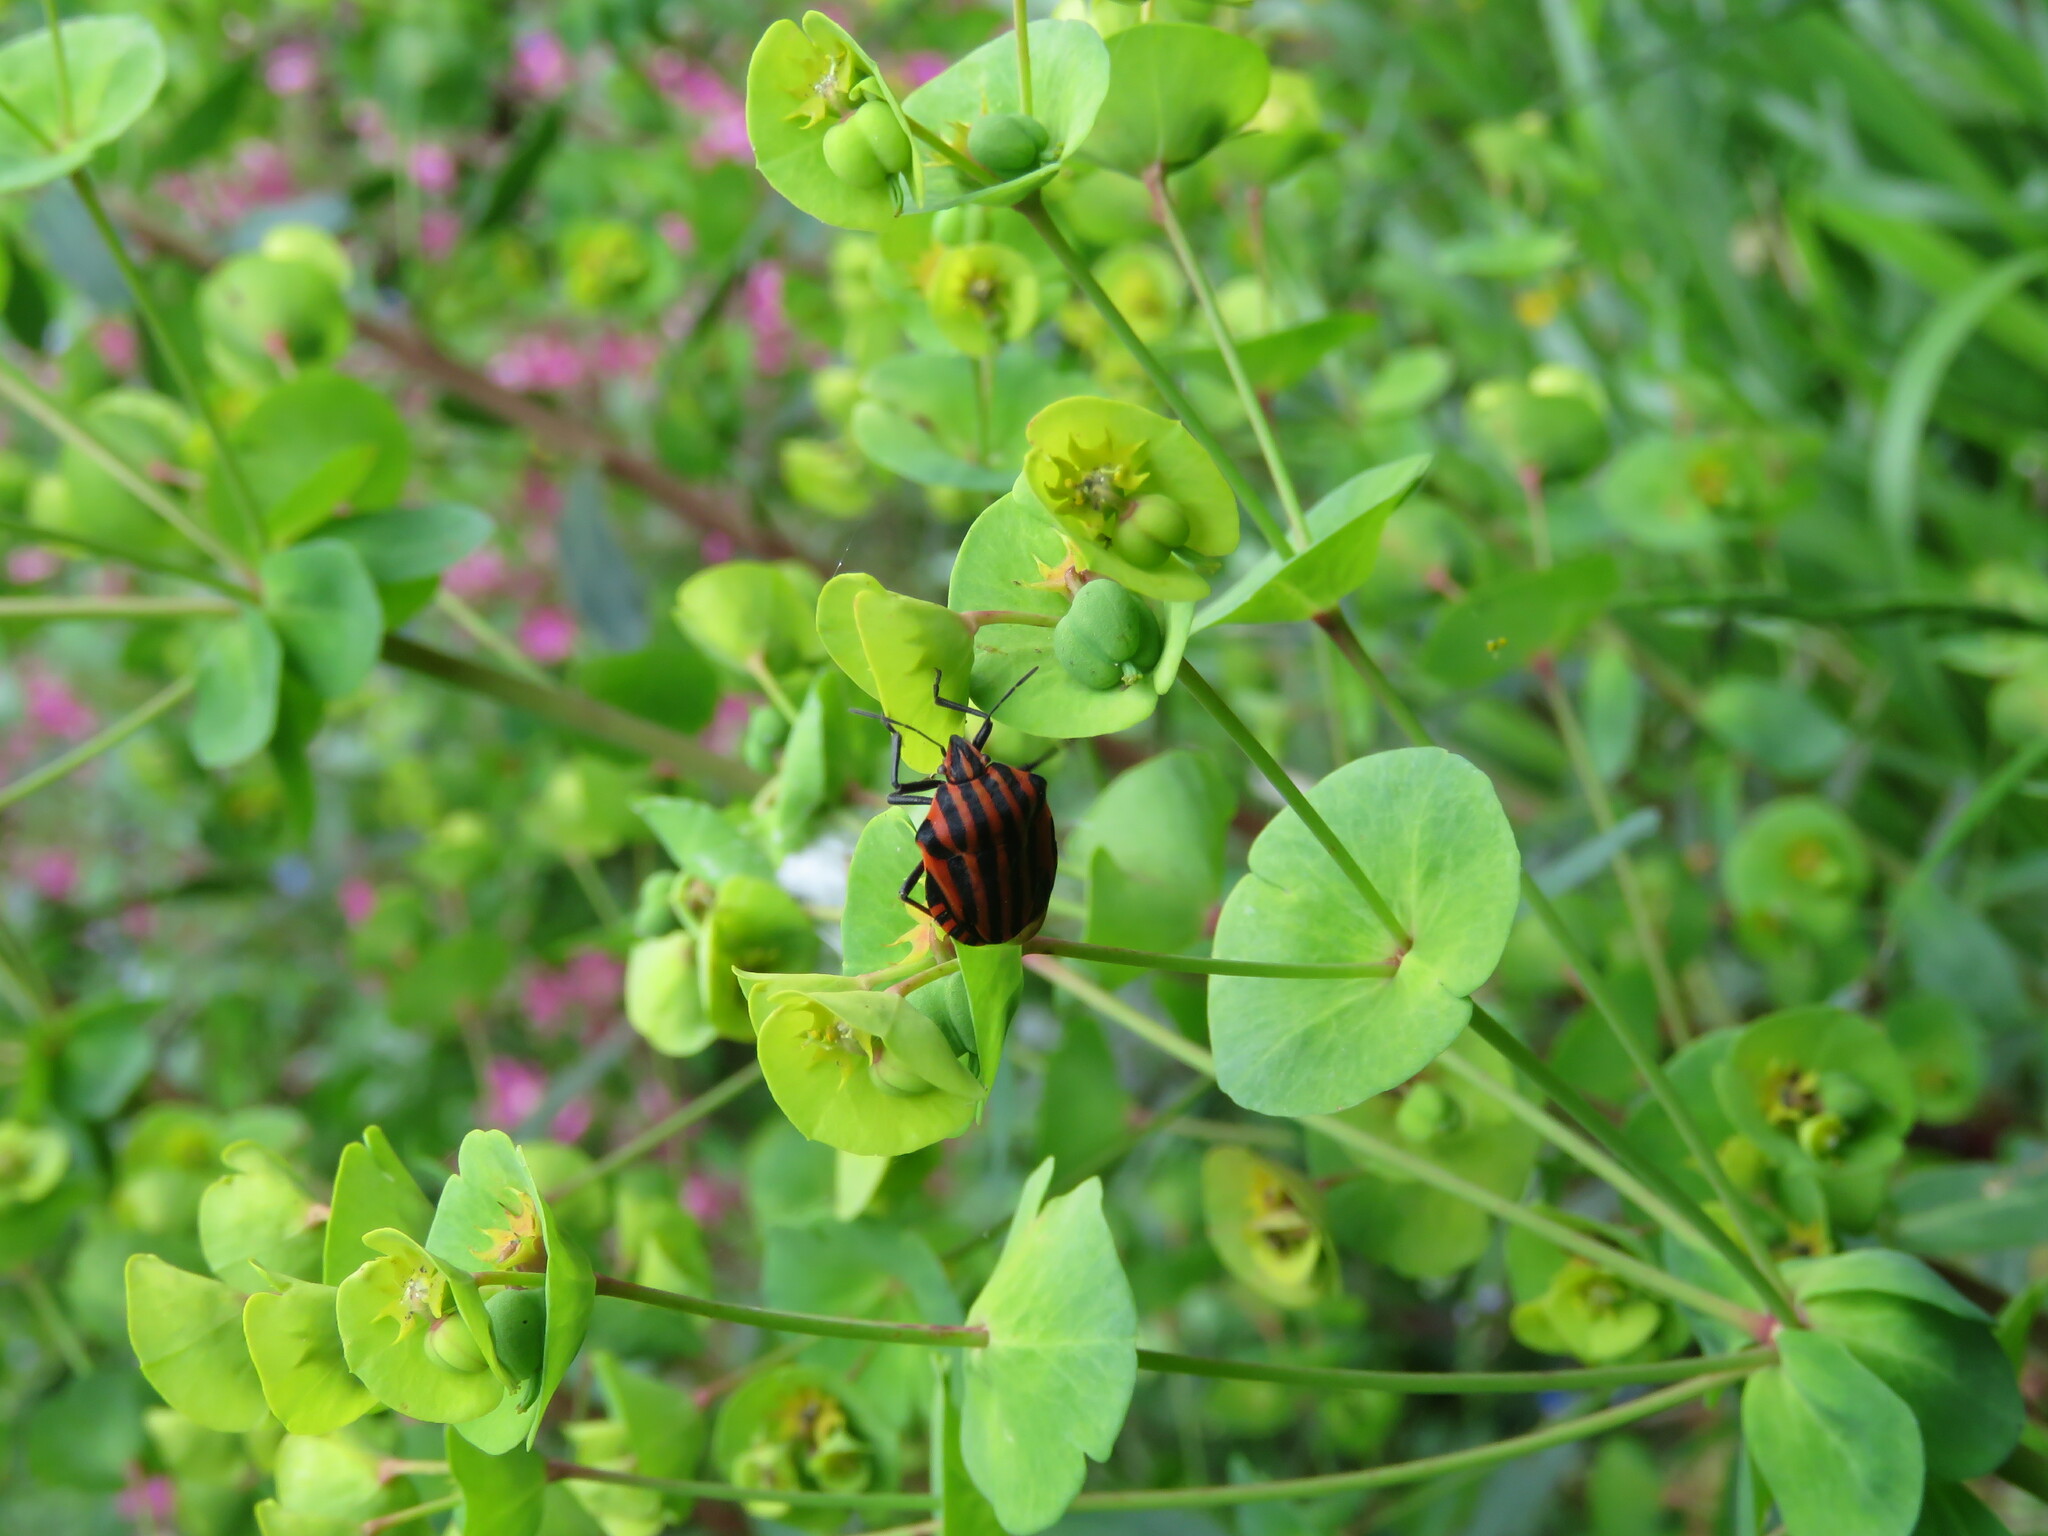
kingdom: Animalia
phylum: Arthropoda
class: Insecta
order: Hemiptera
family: Pentatomidae
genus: Graphosoma
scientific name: Graphosoma italicum
